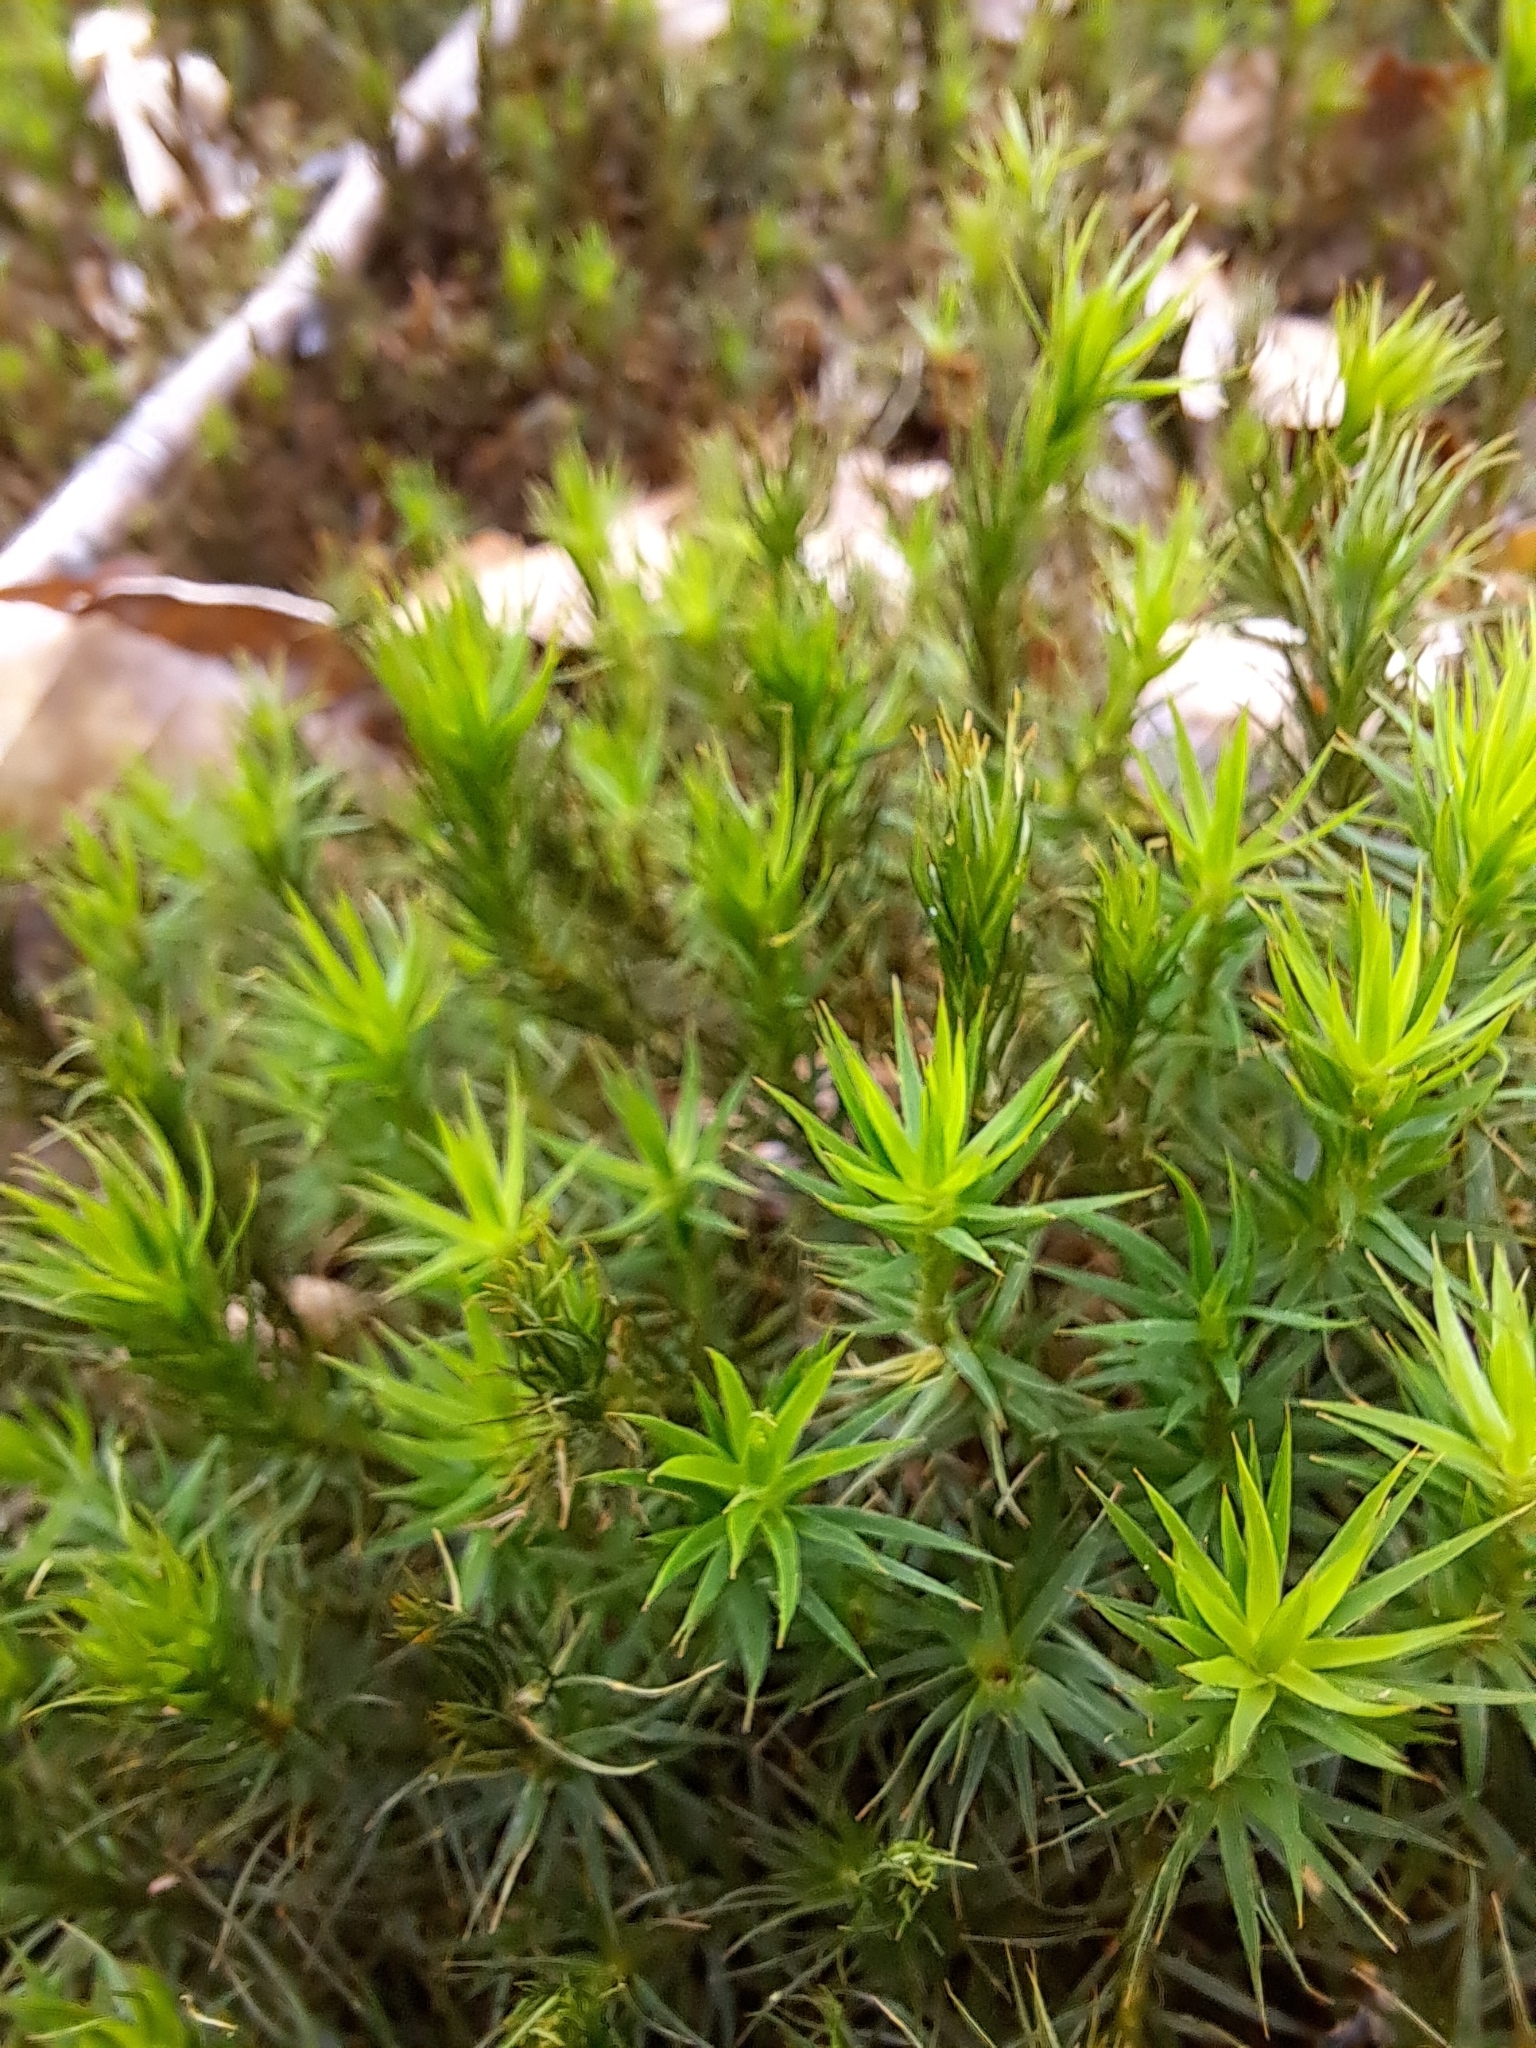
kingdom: Plantae
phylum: Bryophyta
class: Polytrichopsida
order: Polytrichales
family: Polytrichaceae
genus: Polytrichum
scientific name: Polytrichum formosum
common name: Bank haircap moss
